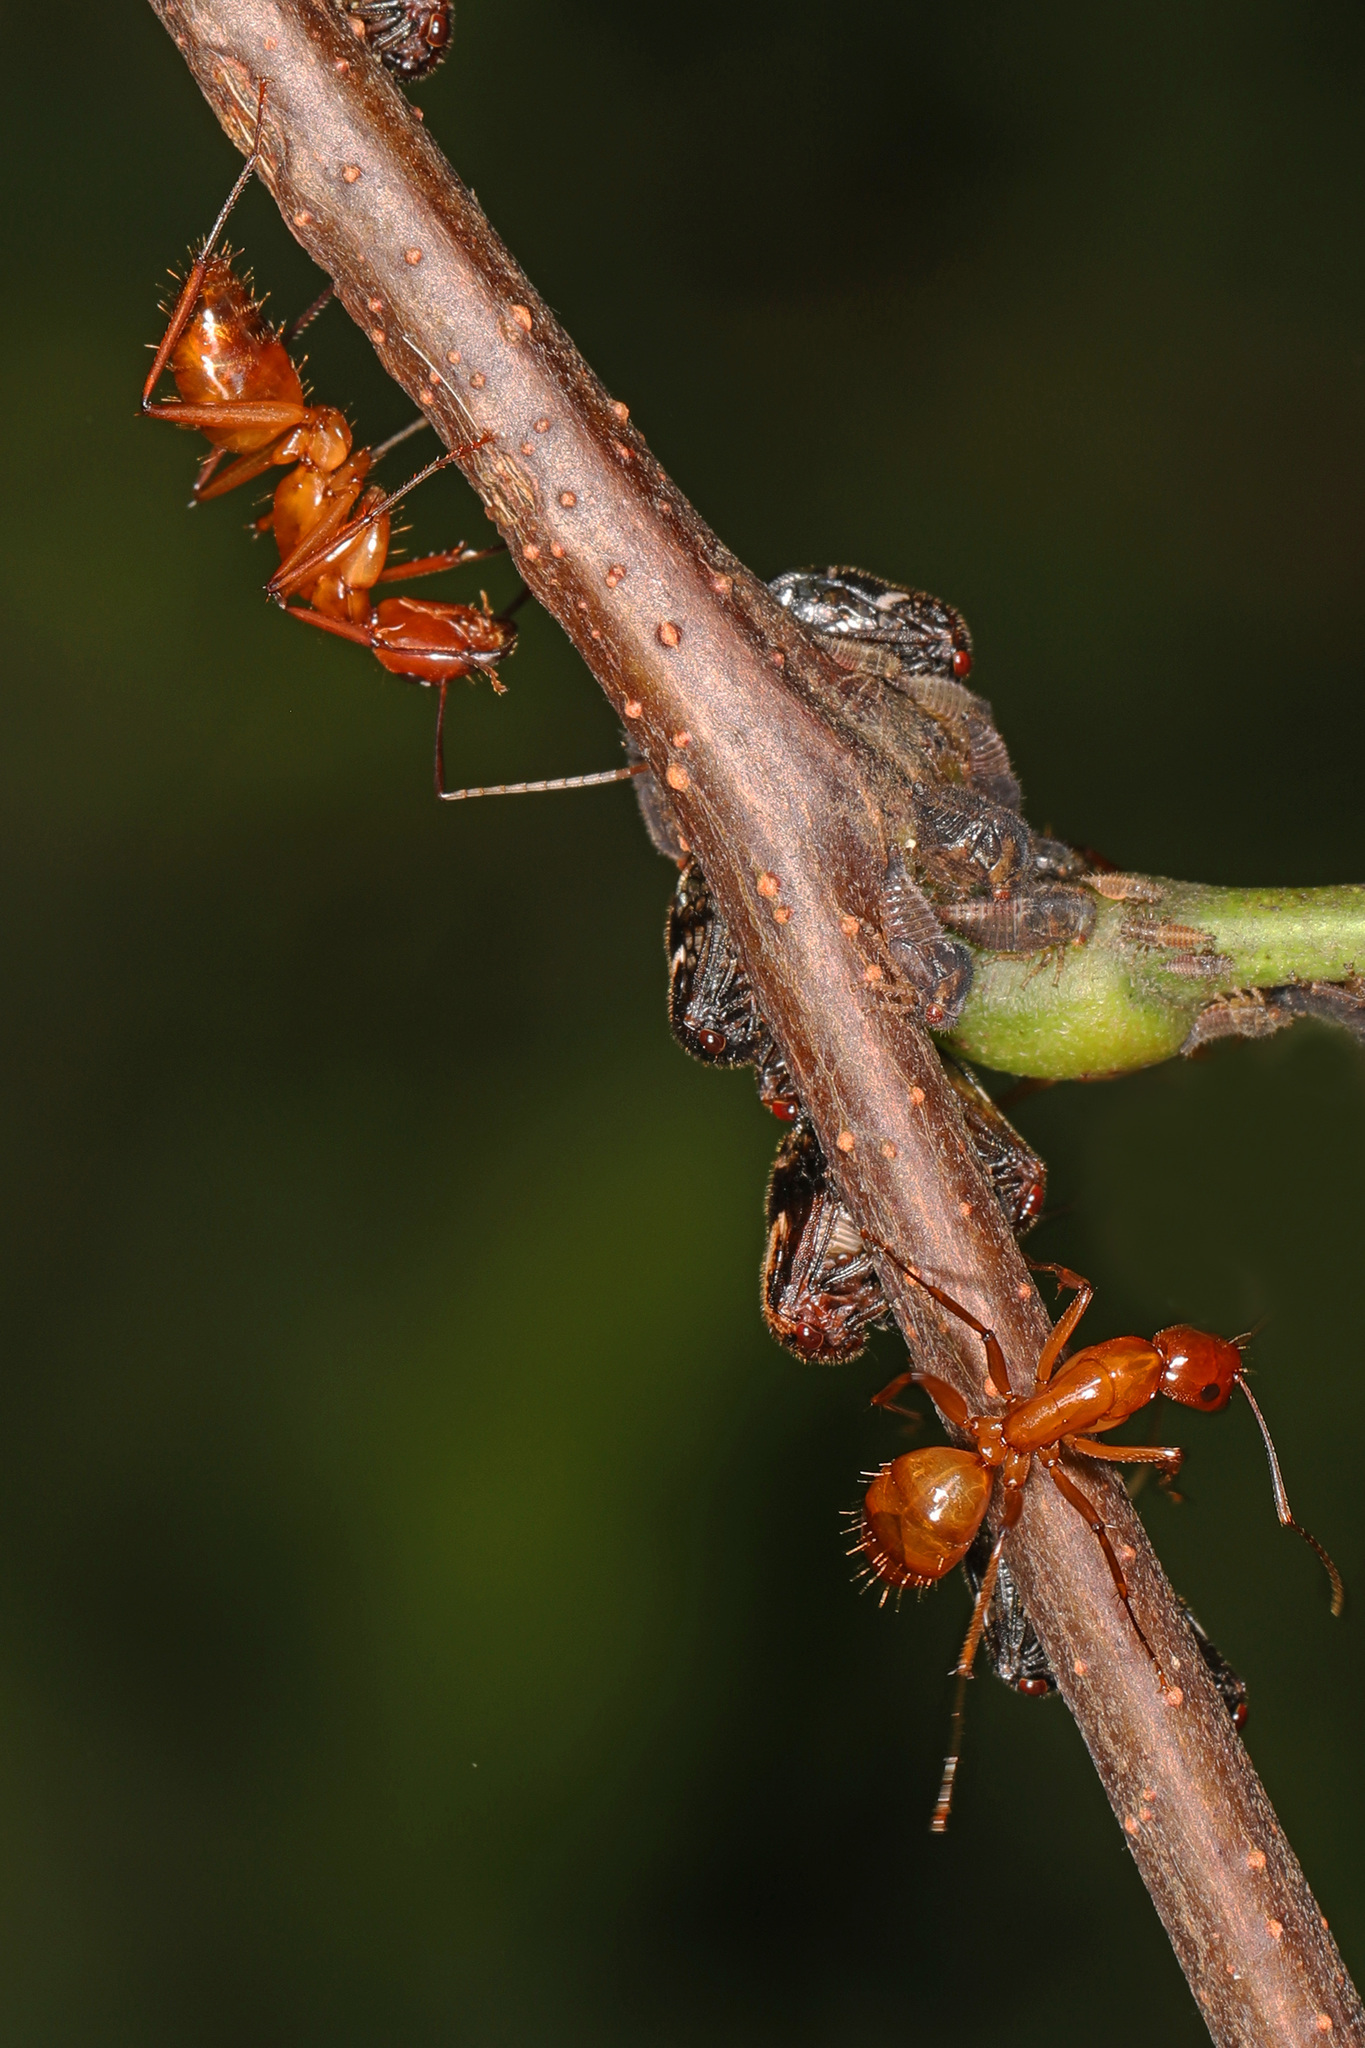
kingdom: Animalia
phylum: Arthropoda
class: Insecta
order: Hymenoptera
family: Formicidae
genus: Camponotus
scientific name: Camponotus castaneus
